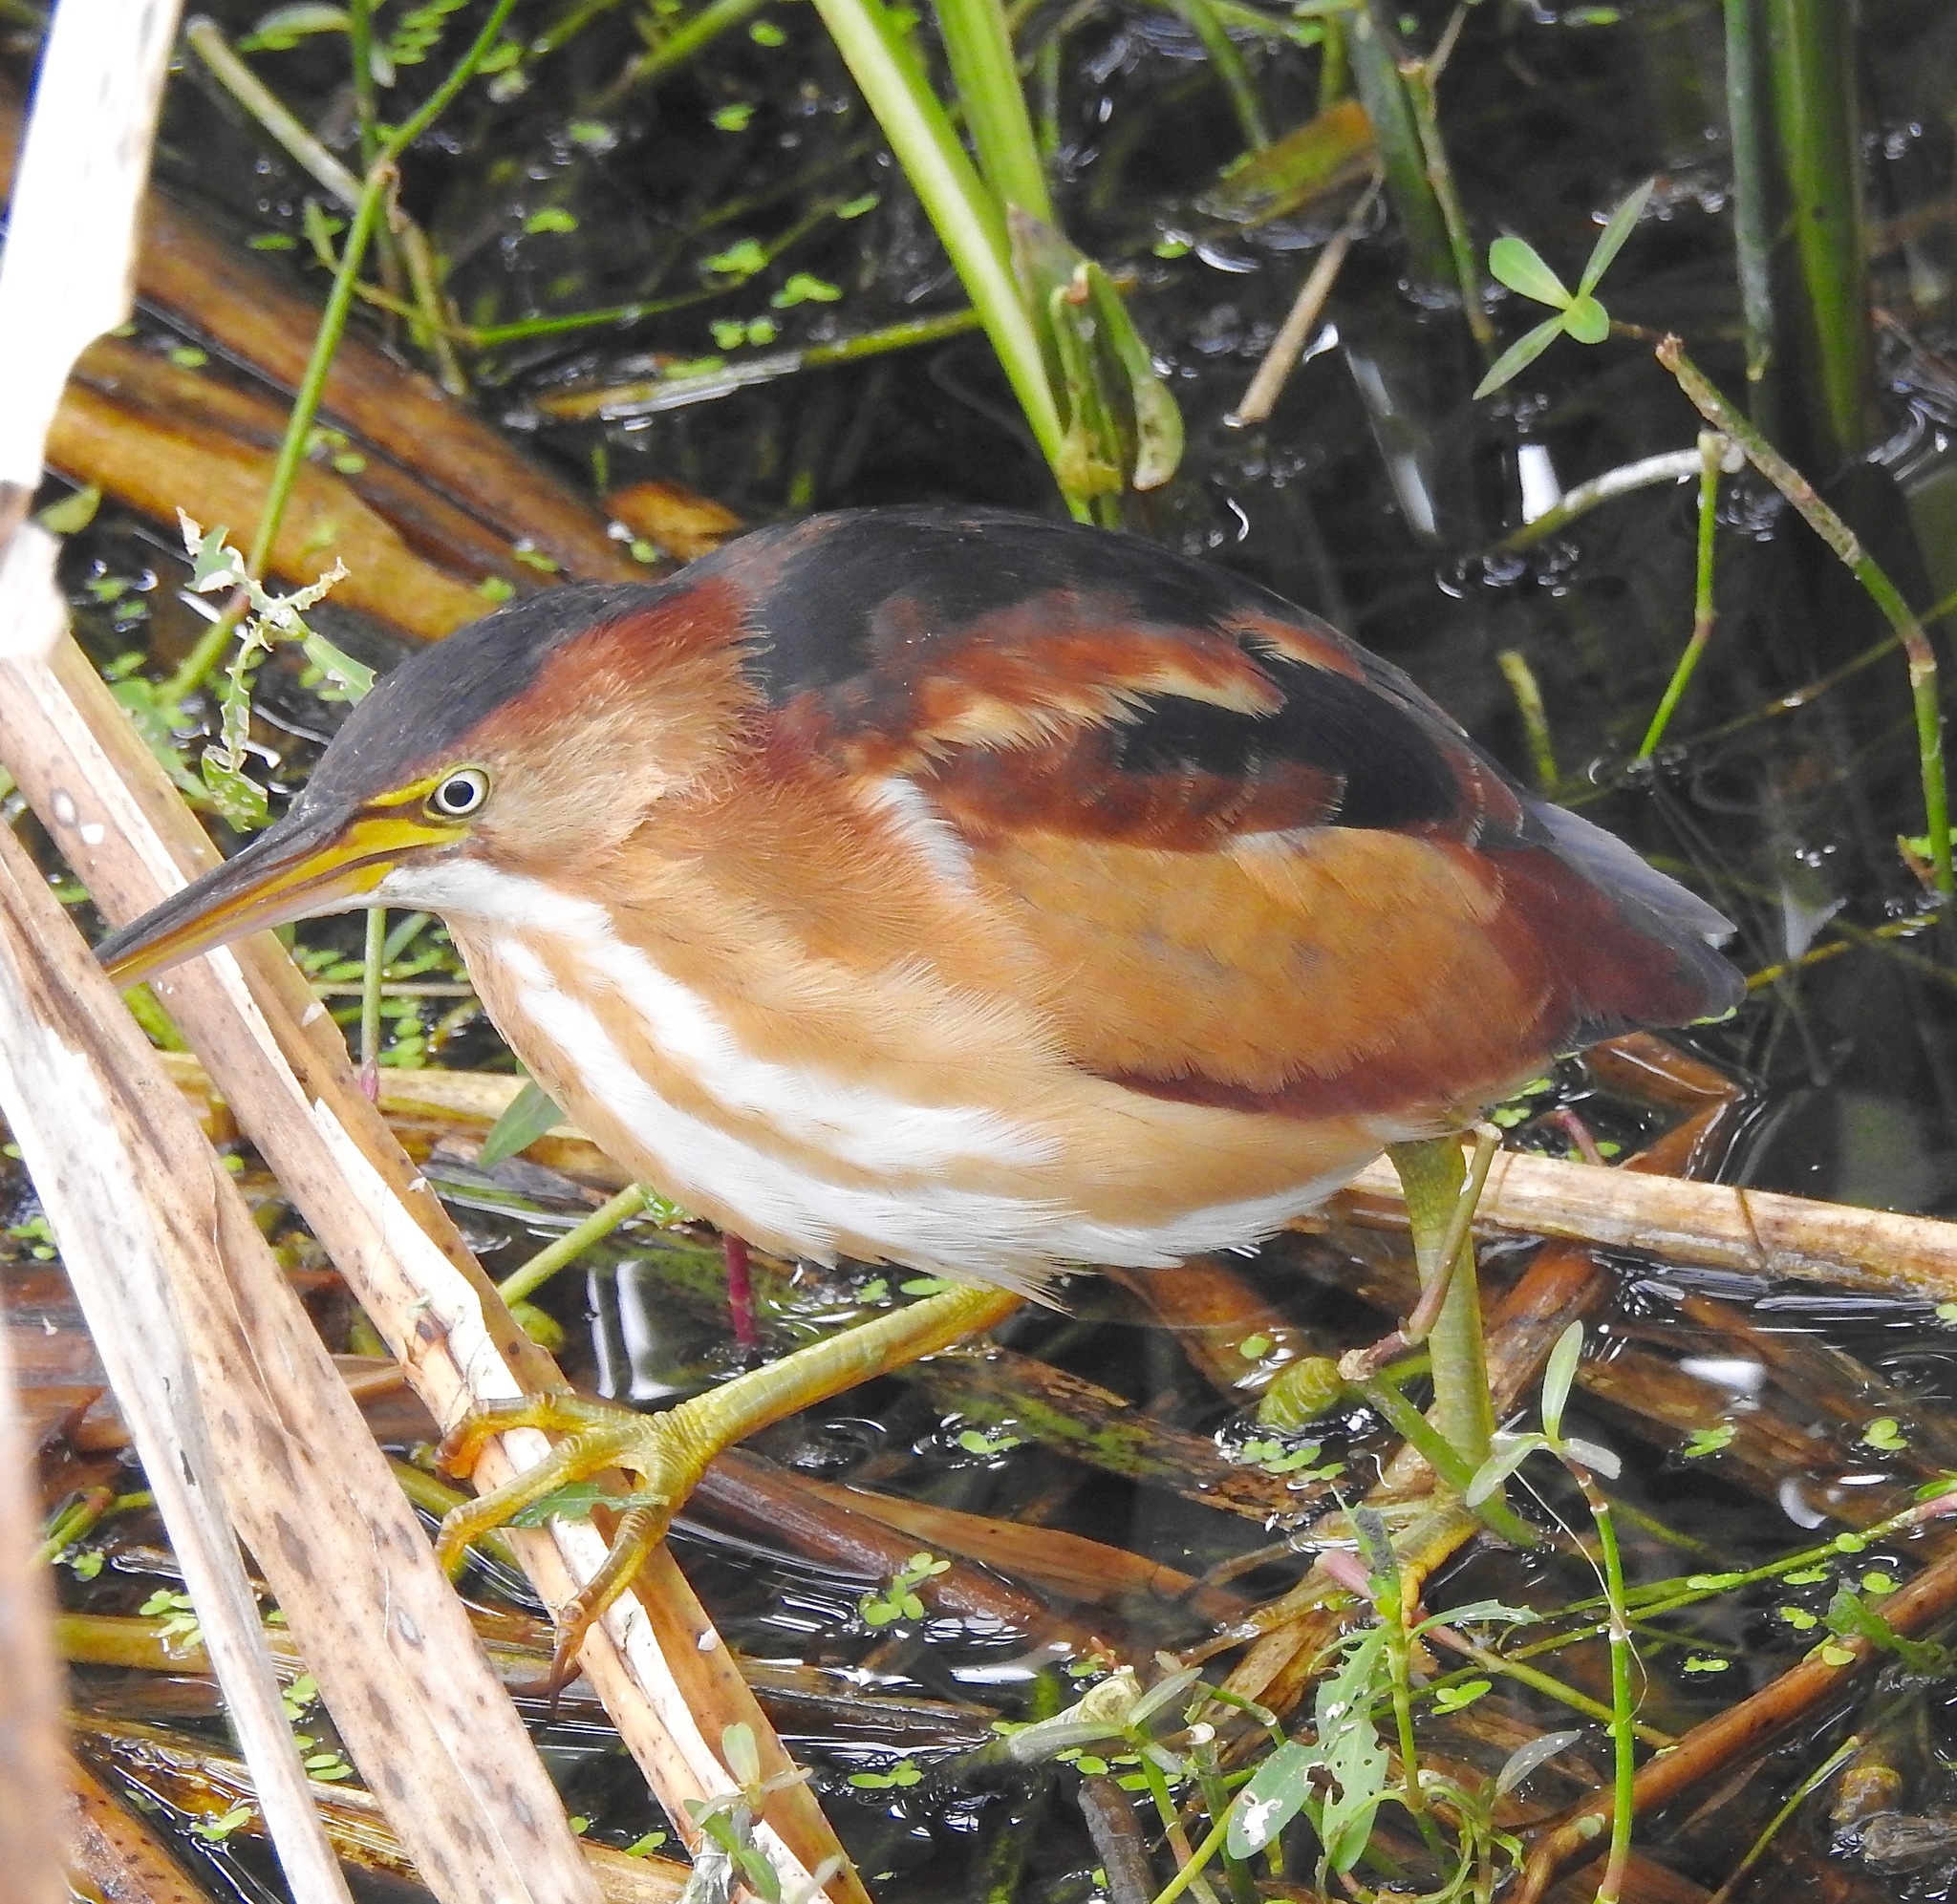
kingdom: Animalia
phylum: Chordata
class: Aves
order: Pelecaniformes
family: Ardeidae
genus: Ixobrychus
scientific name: Ixobrychus exilis
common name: Least bittern
